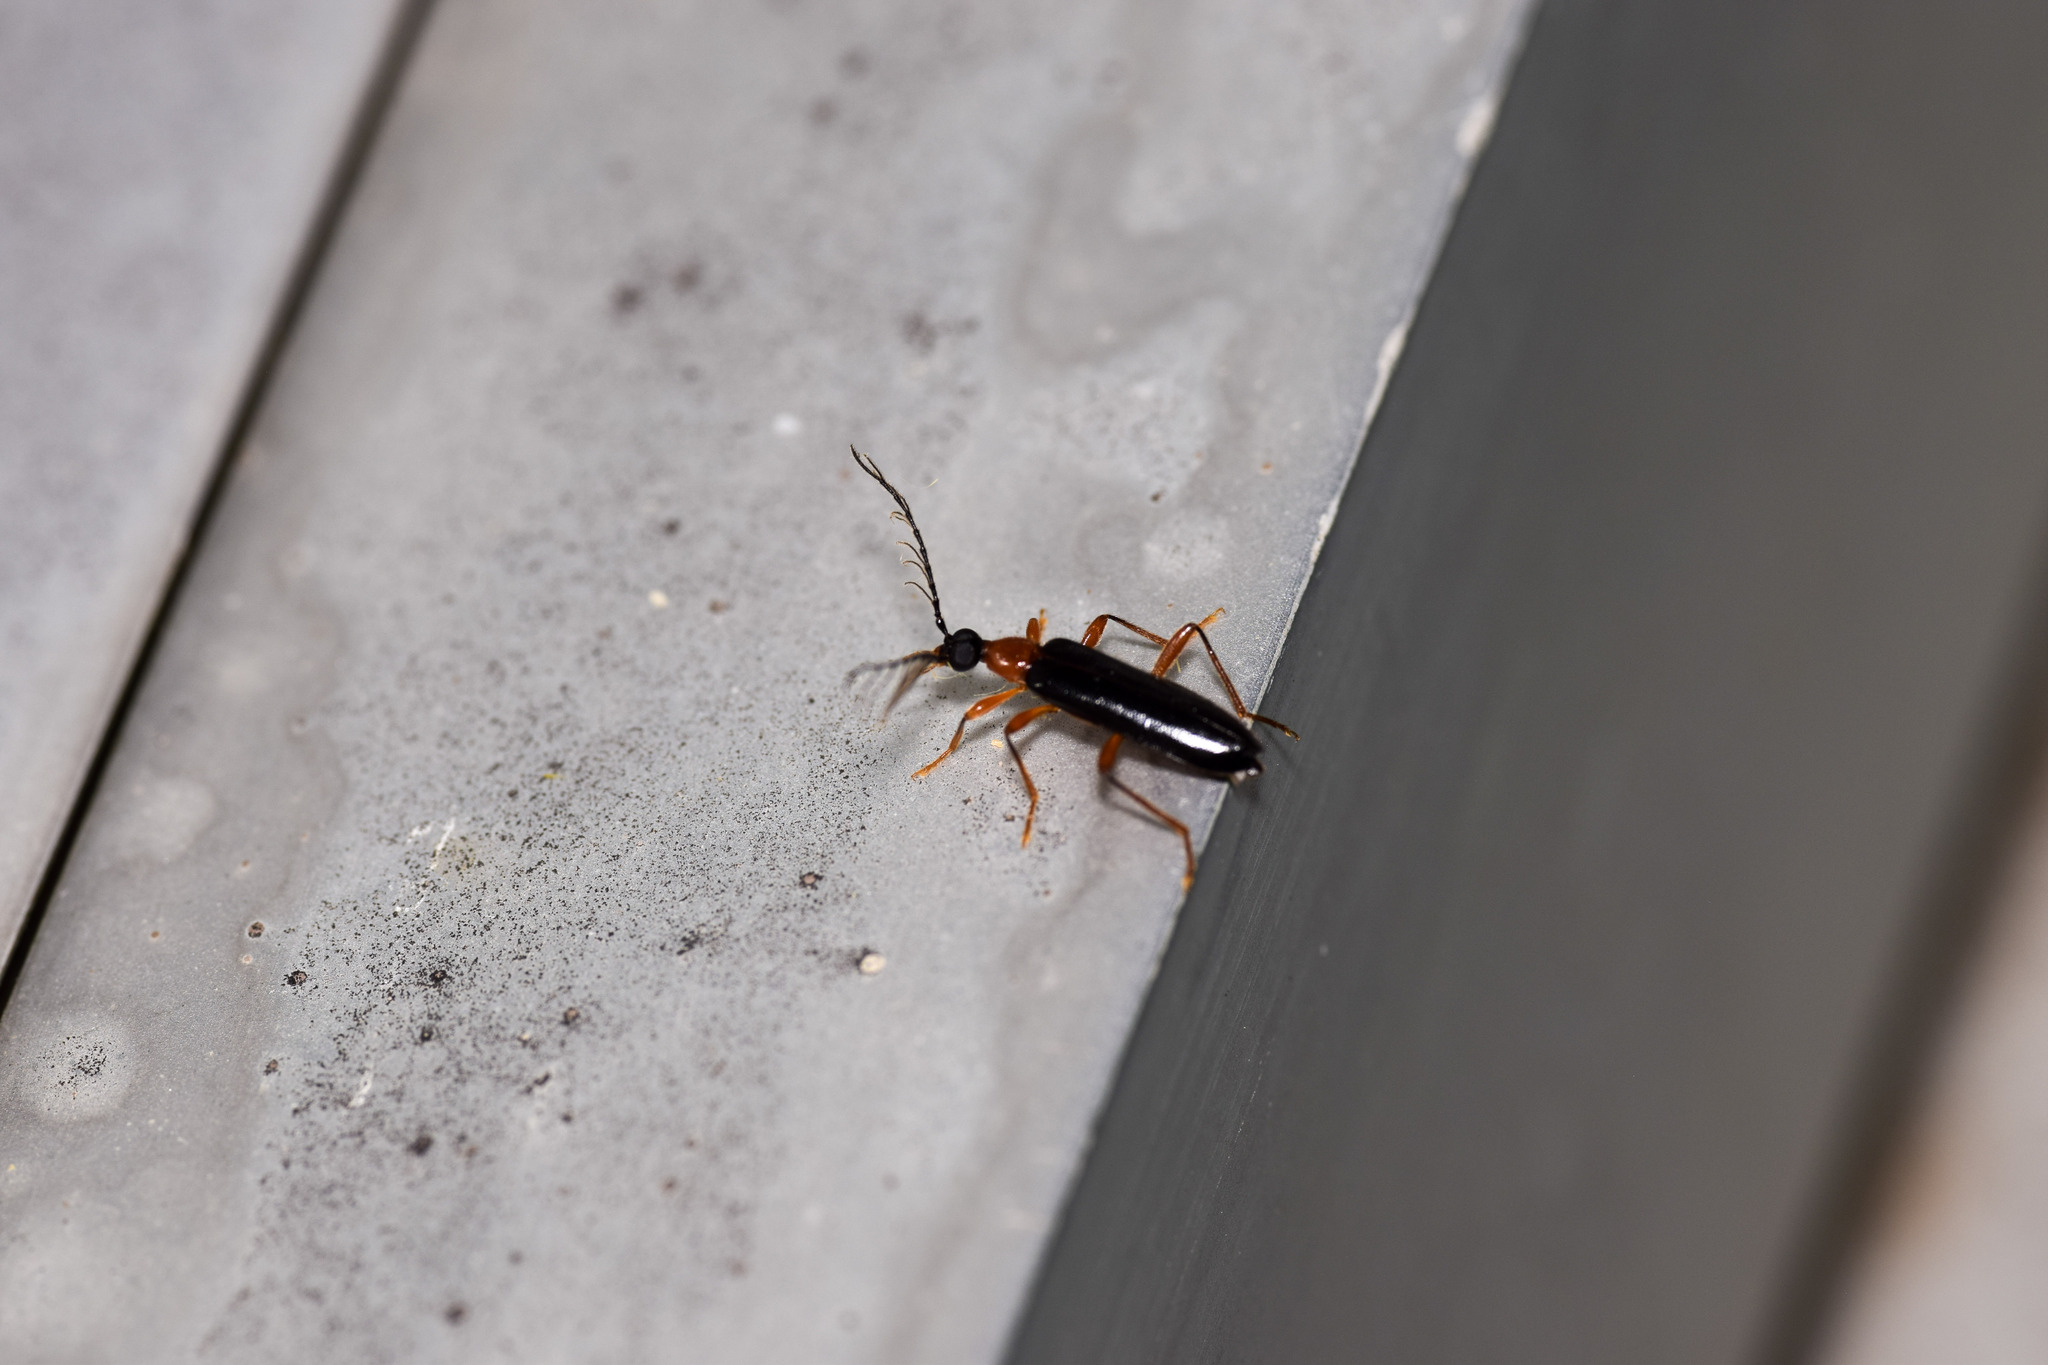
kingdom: Animalia
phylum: Arthropoda
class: Insecta
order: Coleoptera
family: Pyrochroidae
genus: Dendroides
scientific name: Dendroides canadensis
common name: Canada fire-colored beetle
